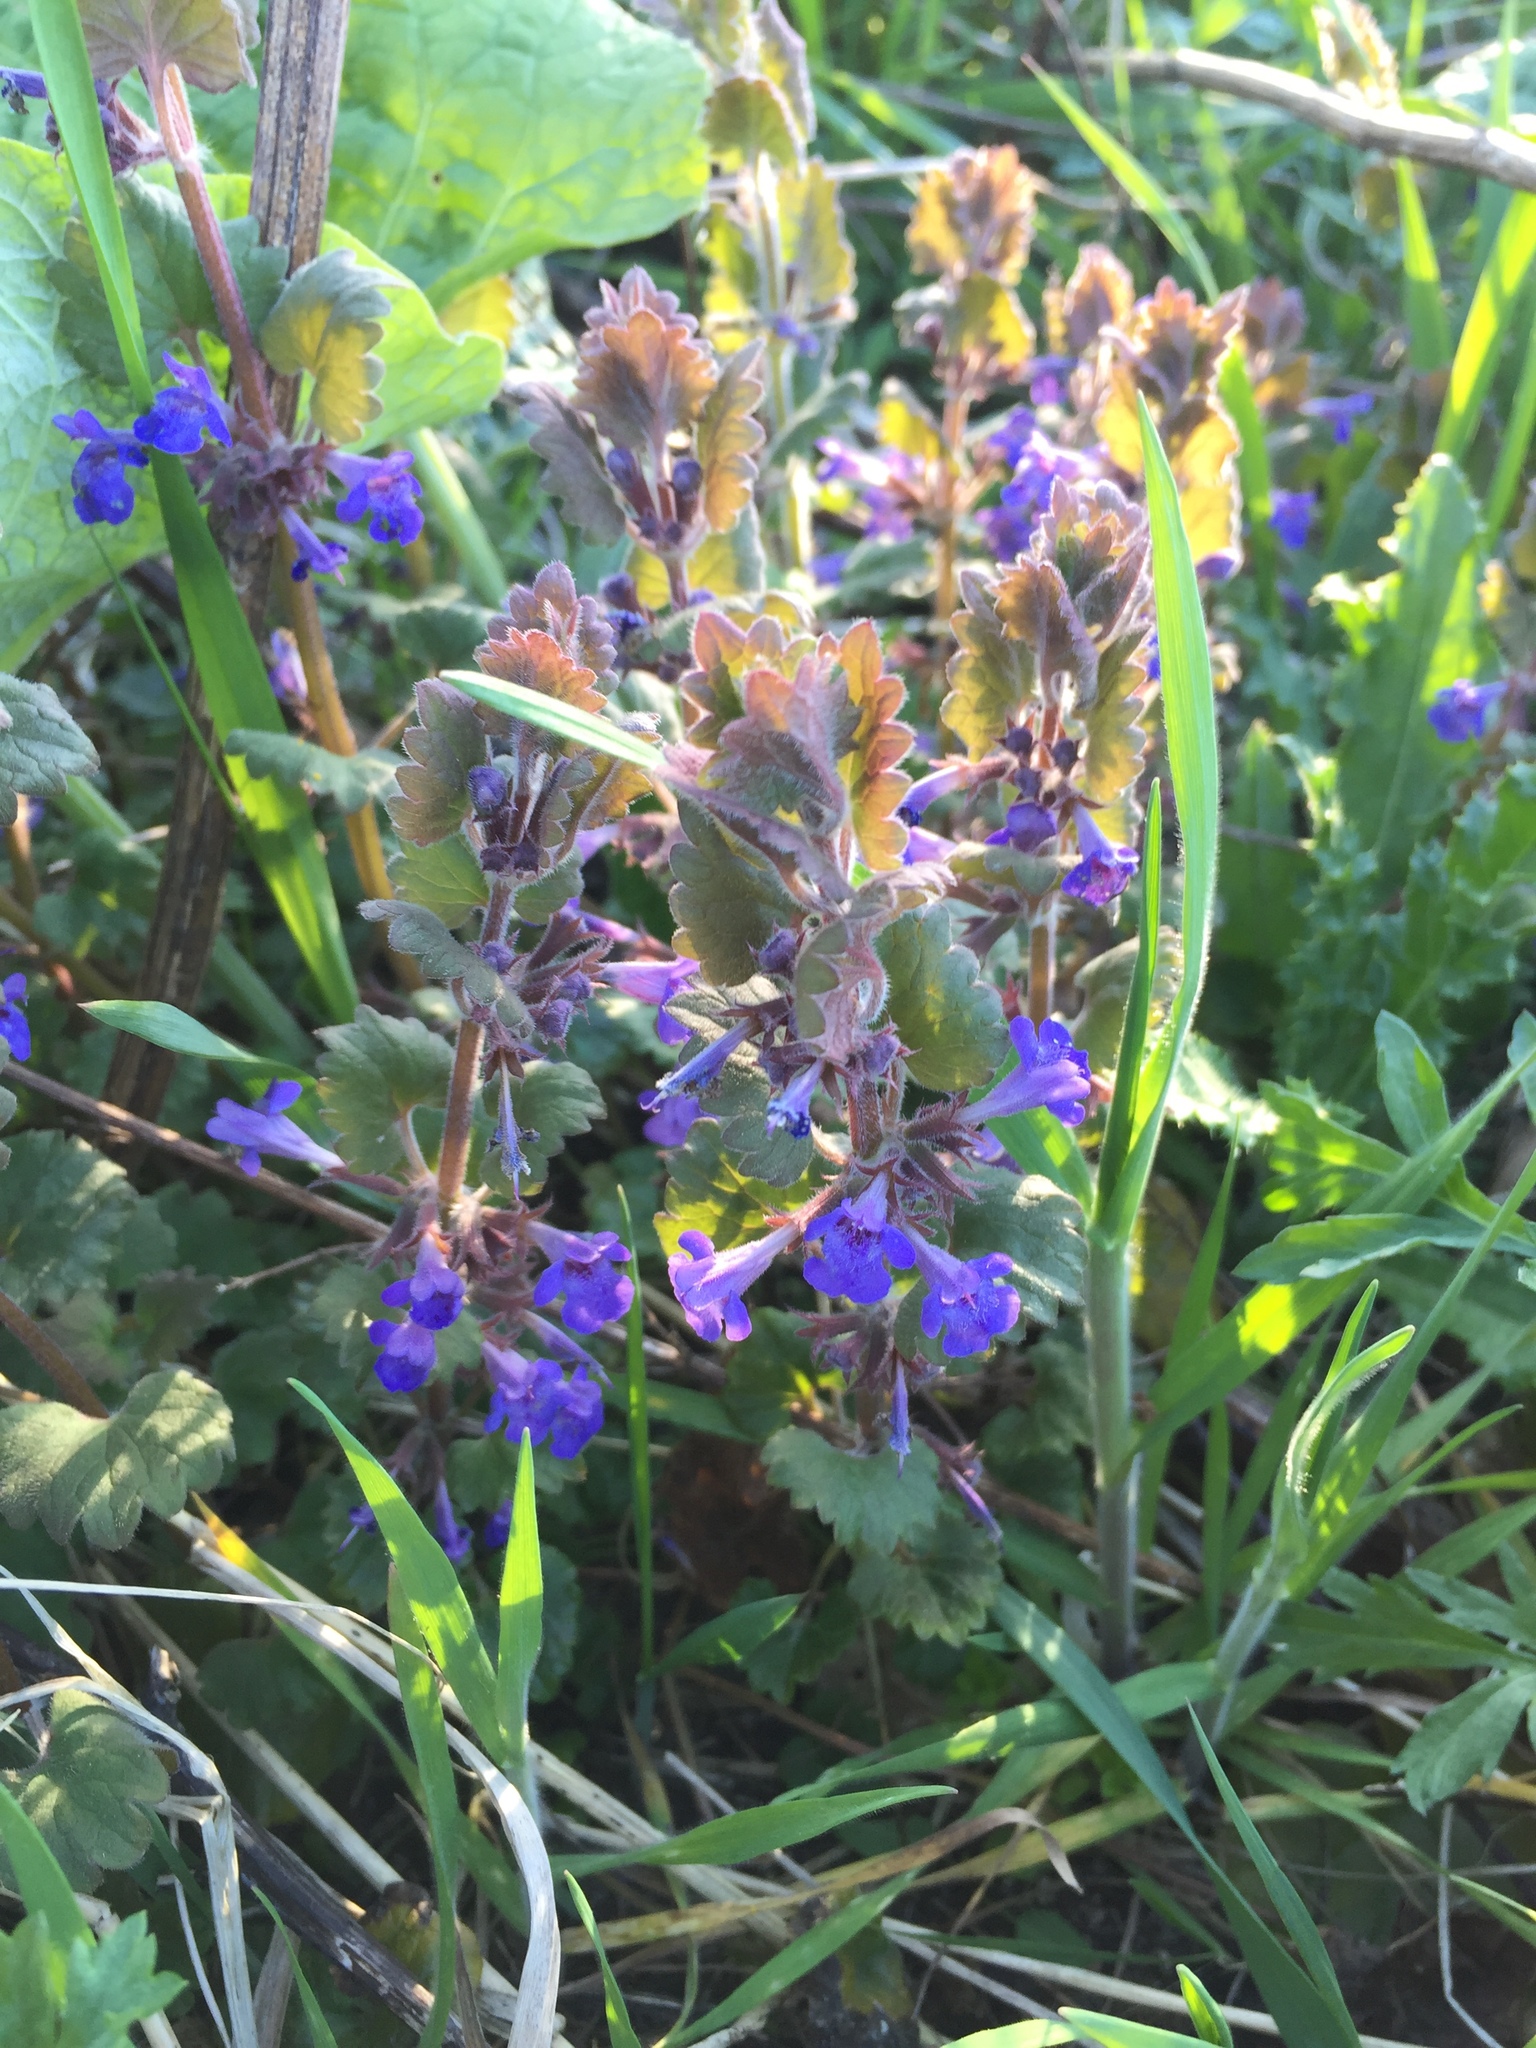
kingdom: Plantae
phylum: Tracheophyta
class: Magnoliopsida
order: Lamiales
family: Lamiaceae
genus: Glechoma
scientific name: Glechoma hederacea
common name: Ground ivy
